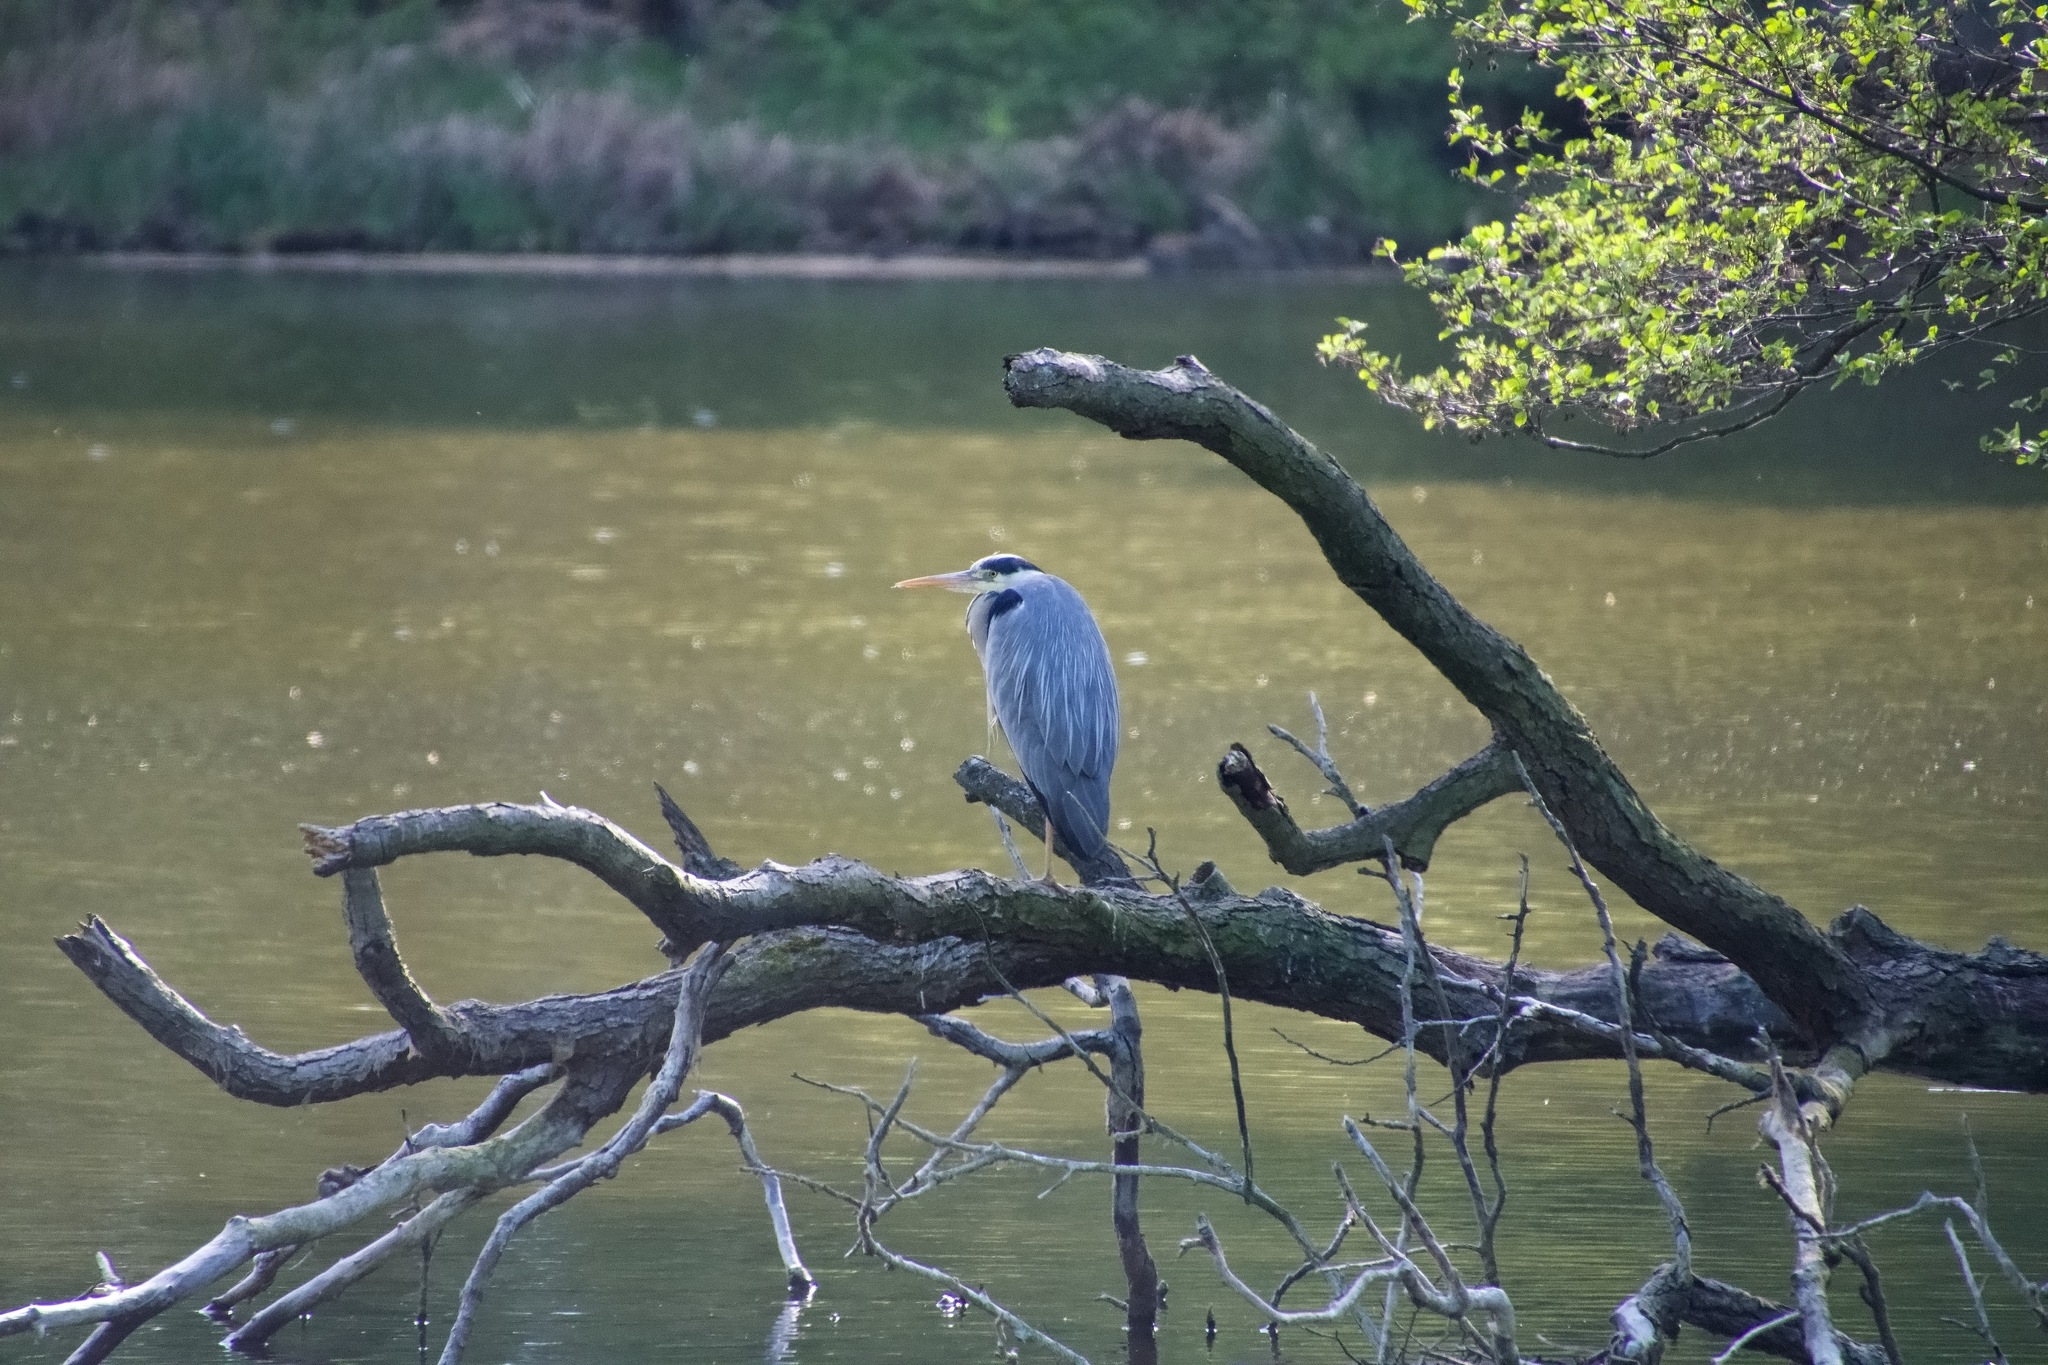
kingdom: Animalia
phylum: Chordata
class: Aves
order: Pelecaniformes
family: Ardeidae
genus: Ardea
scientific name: Ardea cinerea
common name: Grey heron
